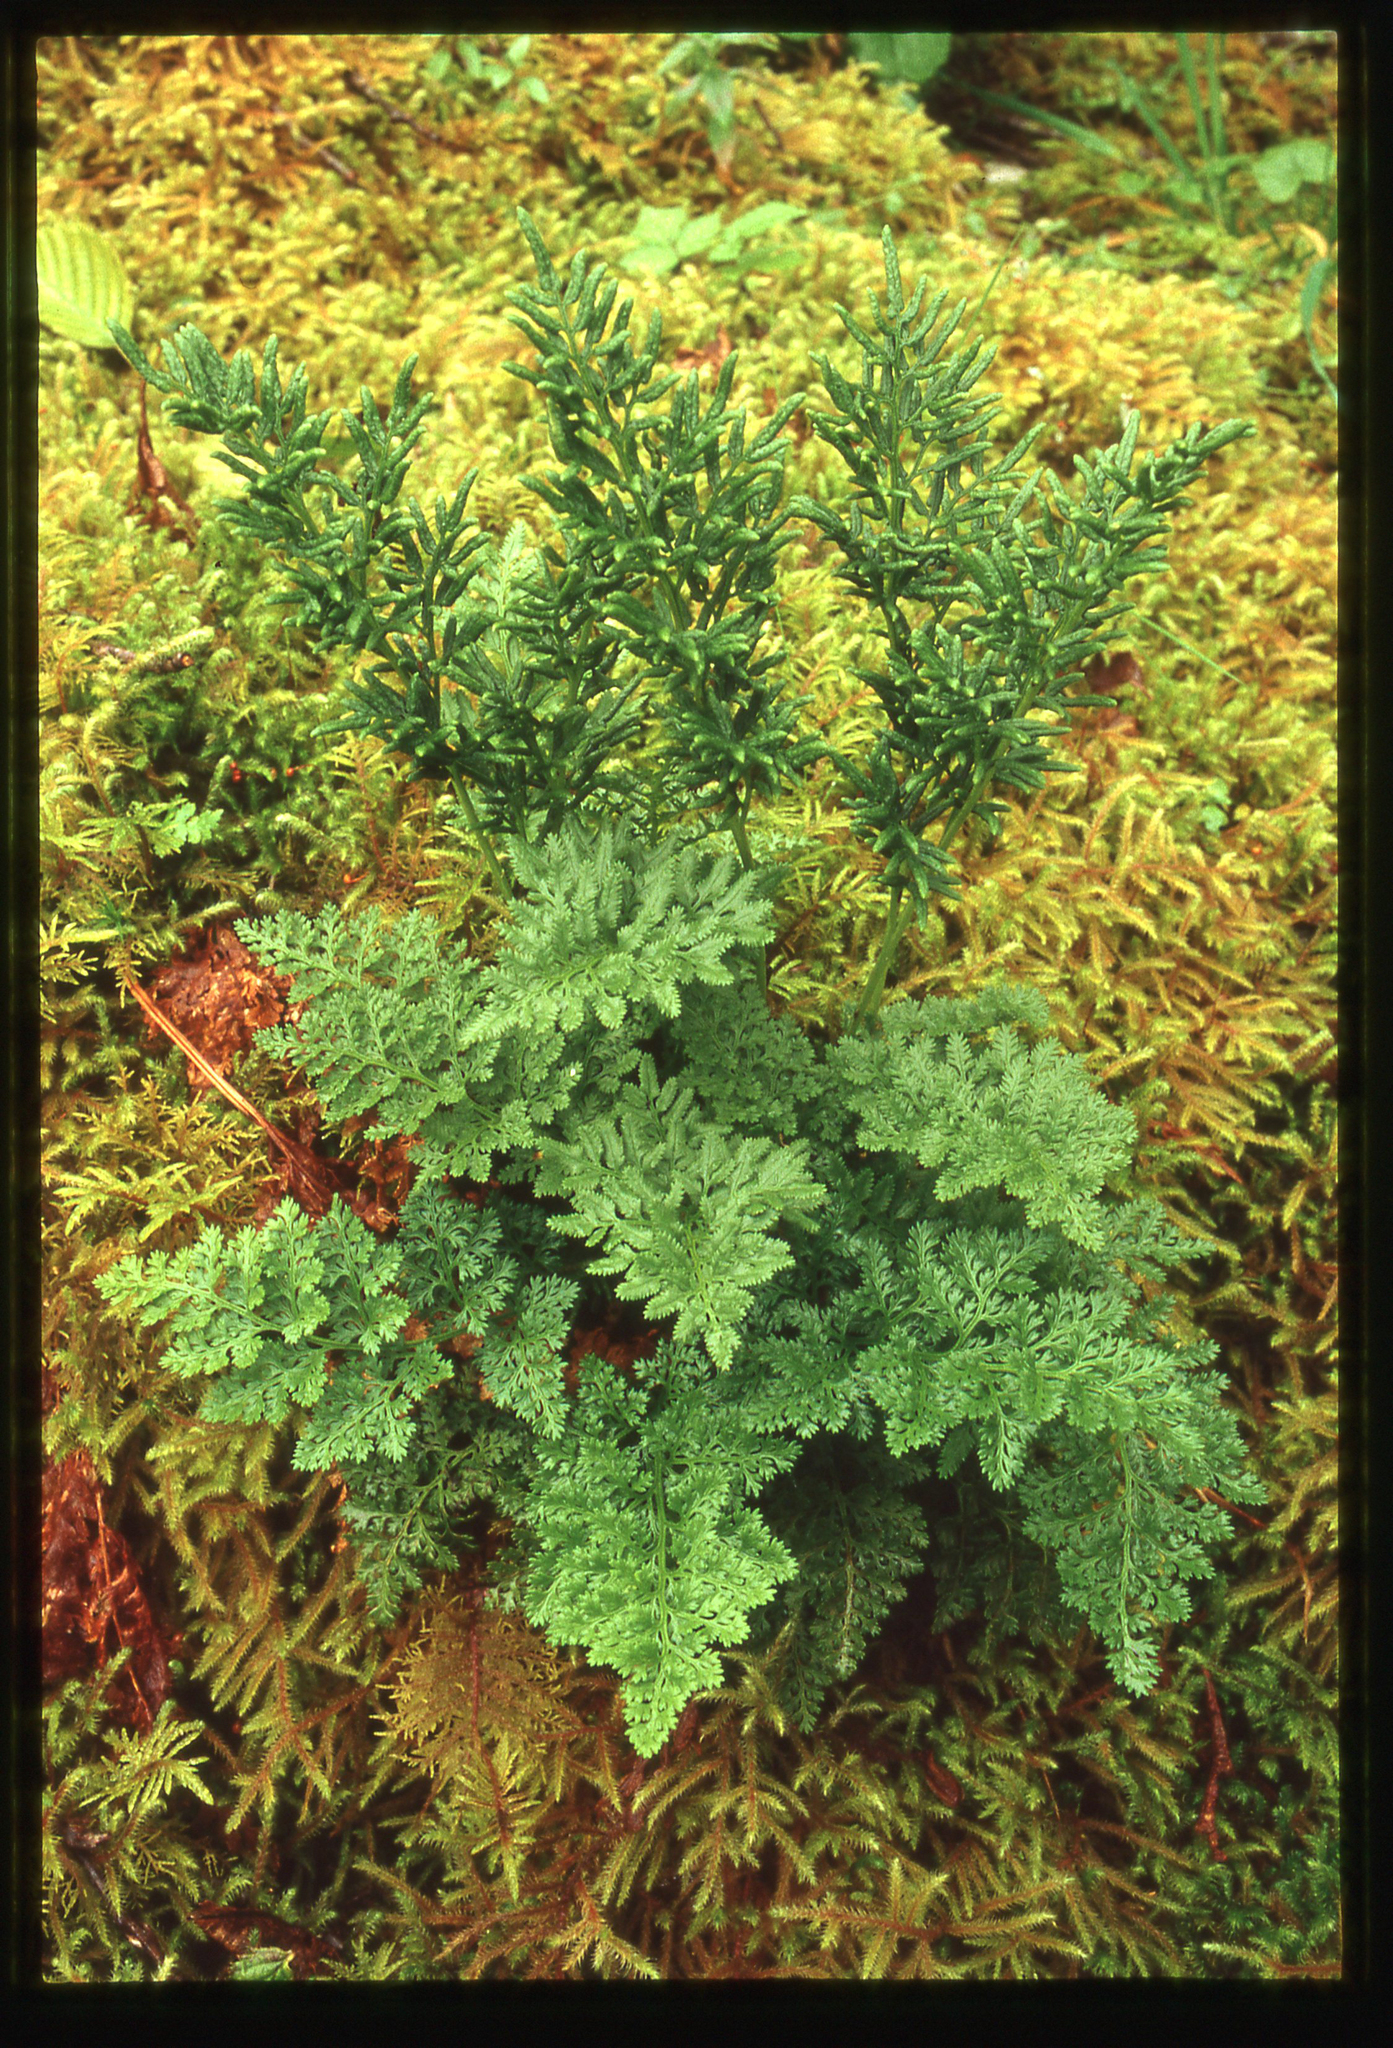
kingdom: Plantae
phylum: Tracheophyta
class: Polypodiopsida
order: Polypodiales
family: Pteridaceae
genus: Cryptogramma
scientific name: Cryptogramma sitchensis
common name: Alaska parsley fern
